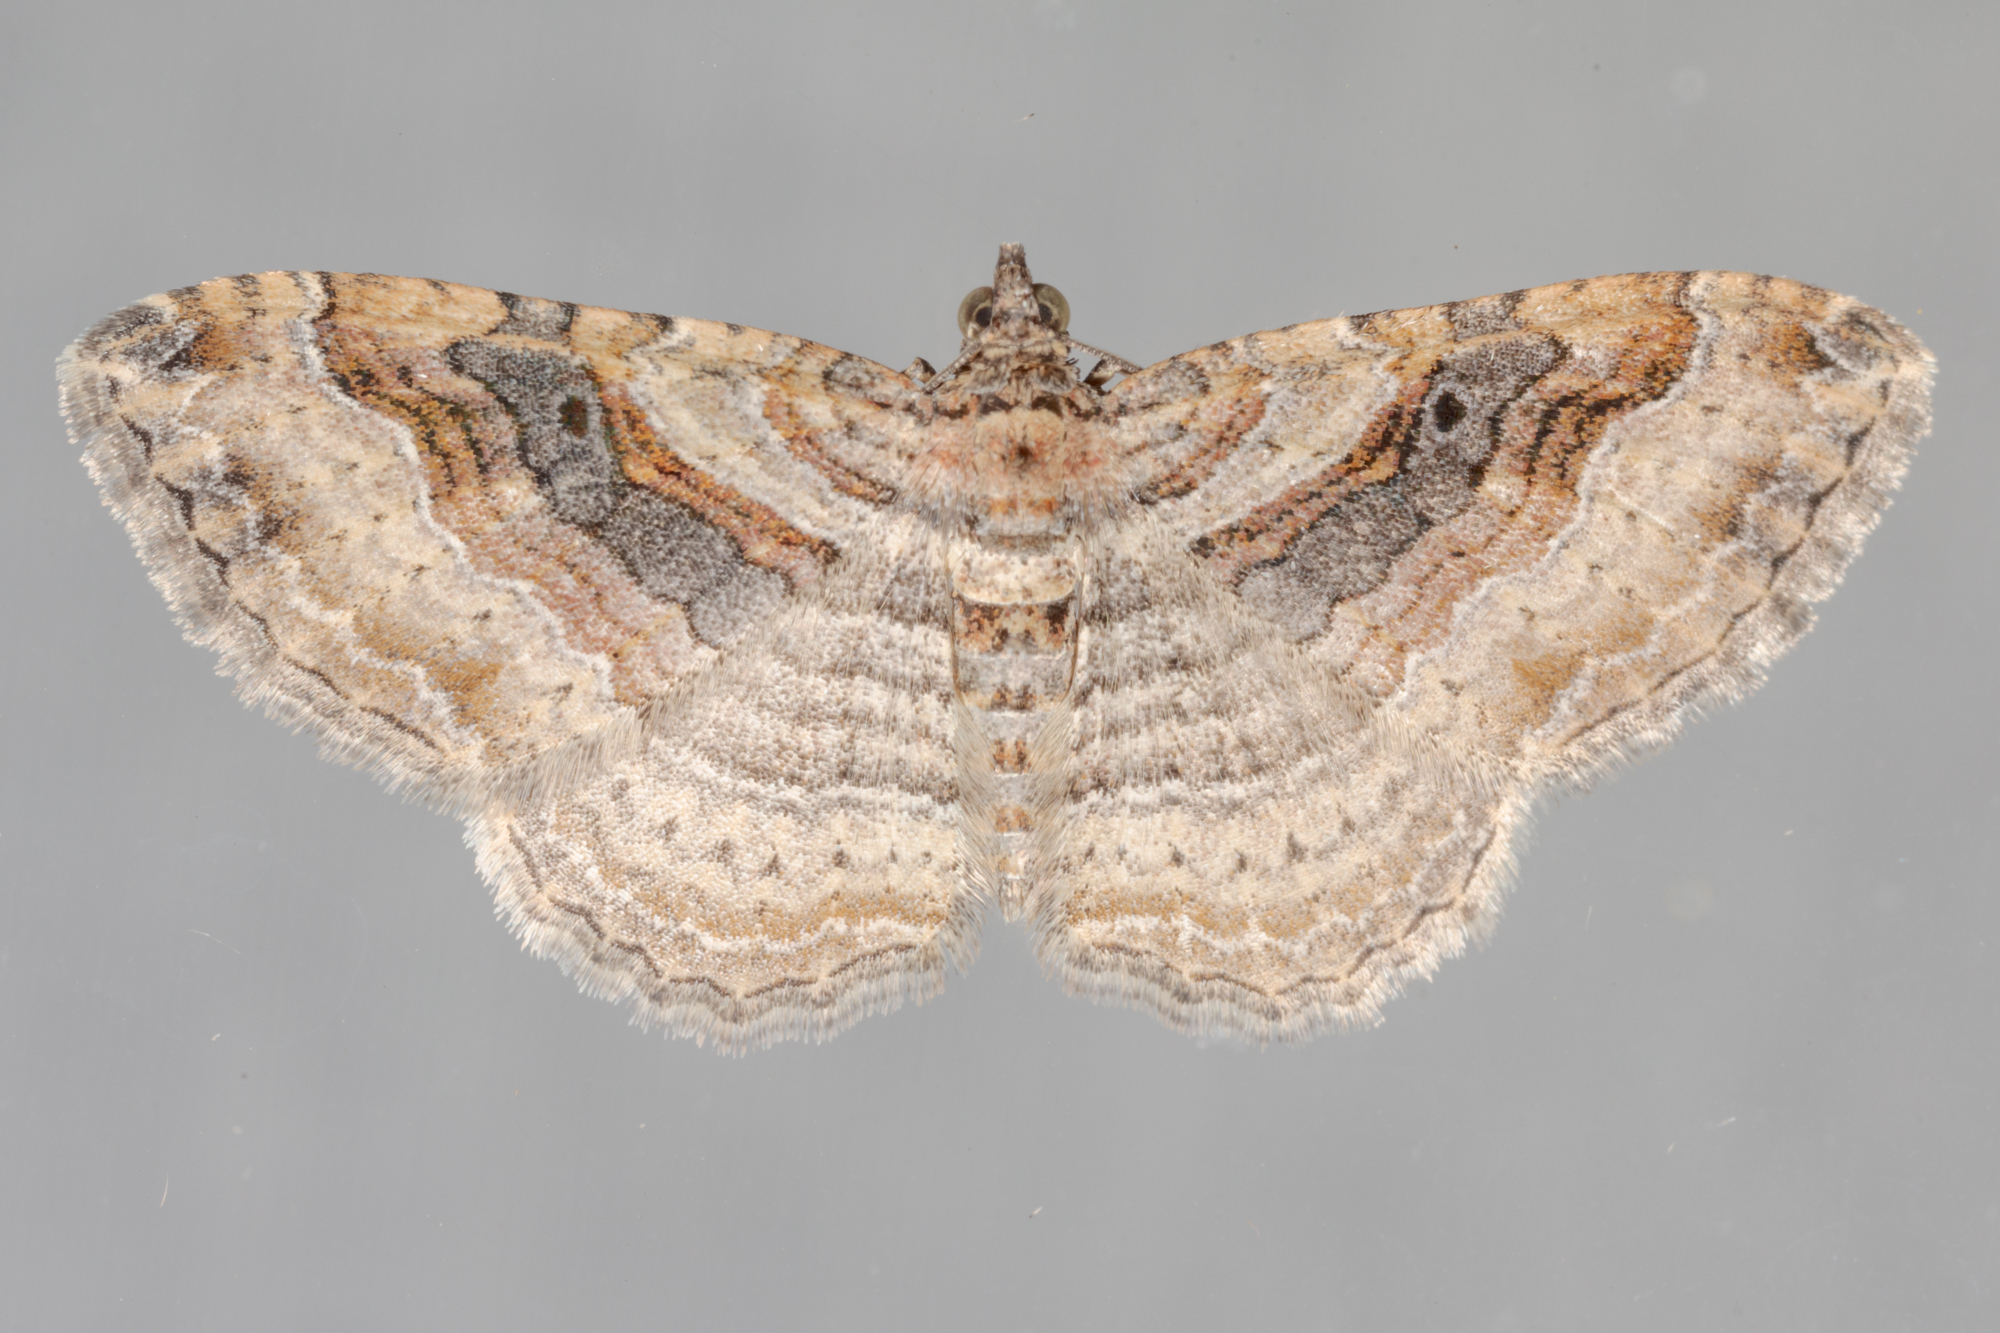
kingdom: Animalia
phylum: Arthropoda
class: Insecta
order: Lepidoptera
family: Geometridae
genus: Costaconvexa
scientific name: Costaconvexa centrostrigaria
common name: Bent-line carpet
